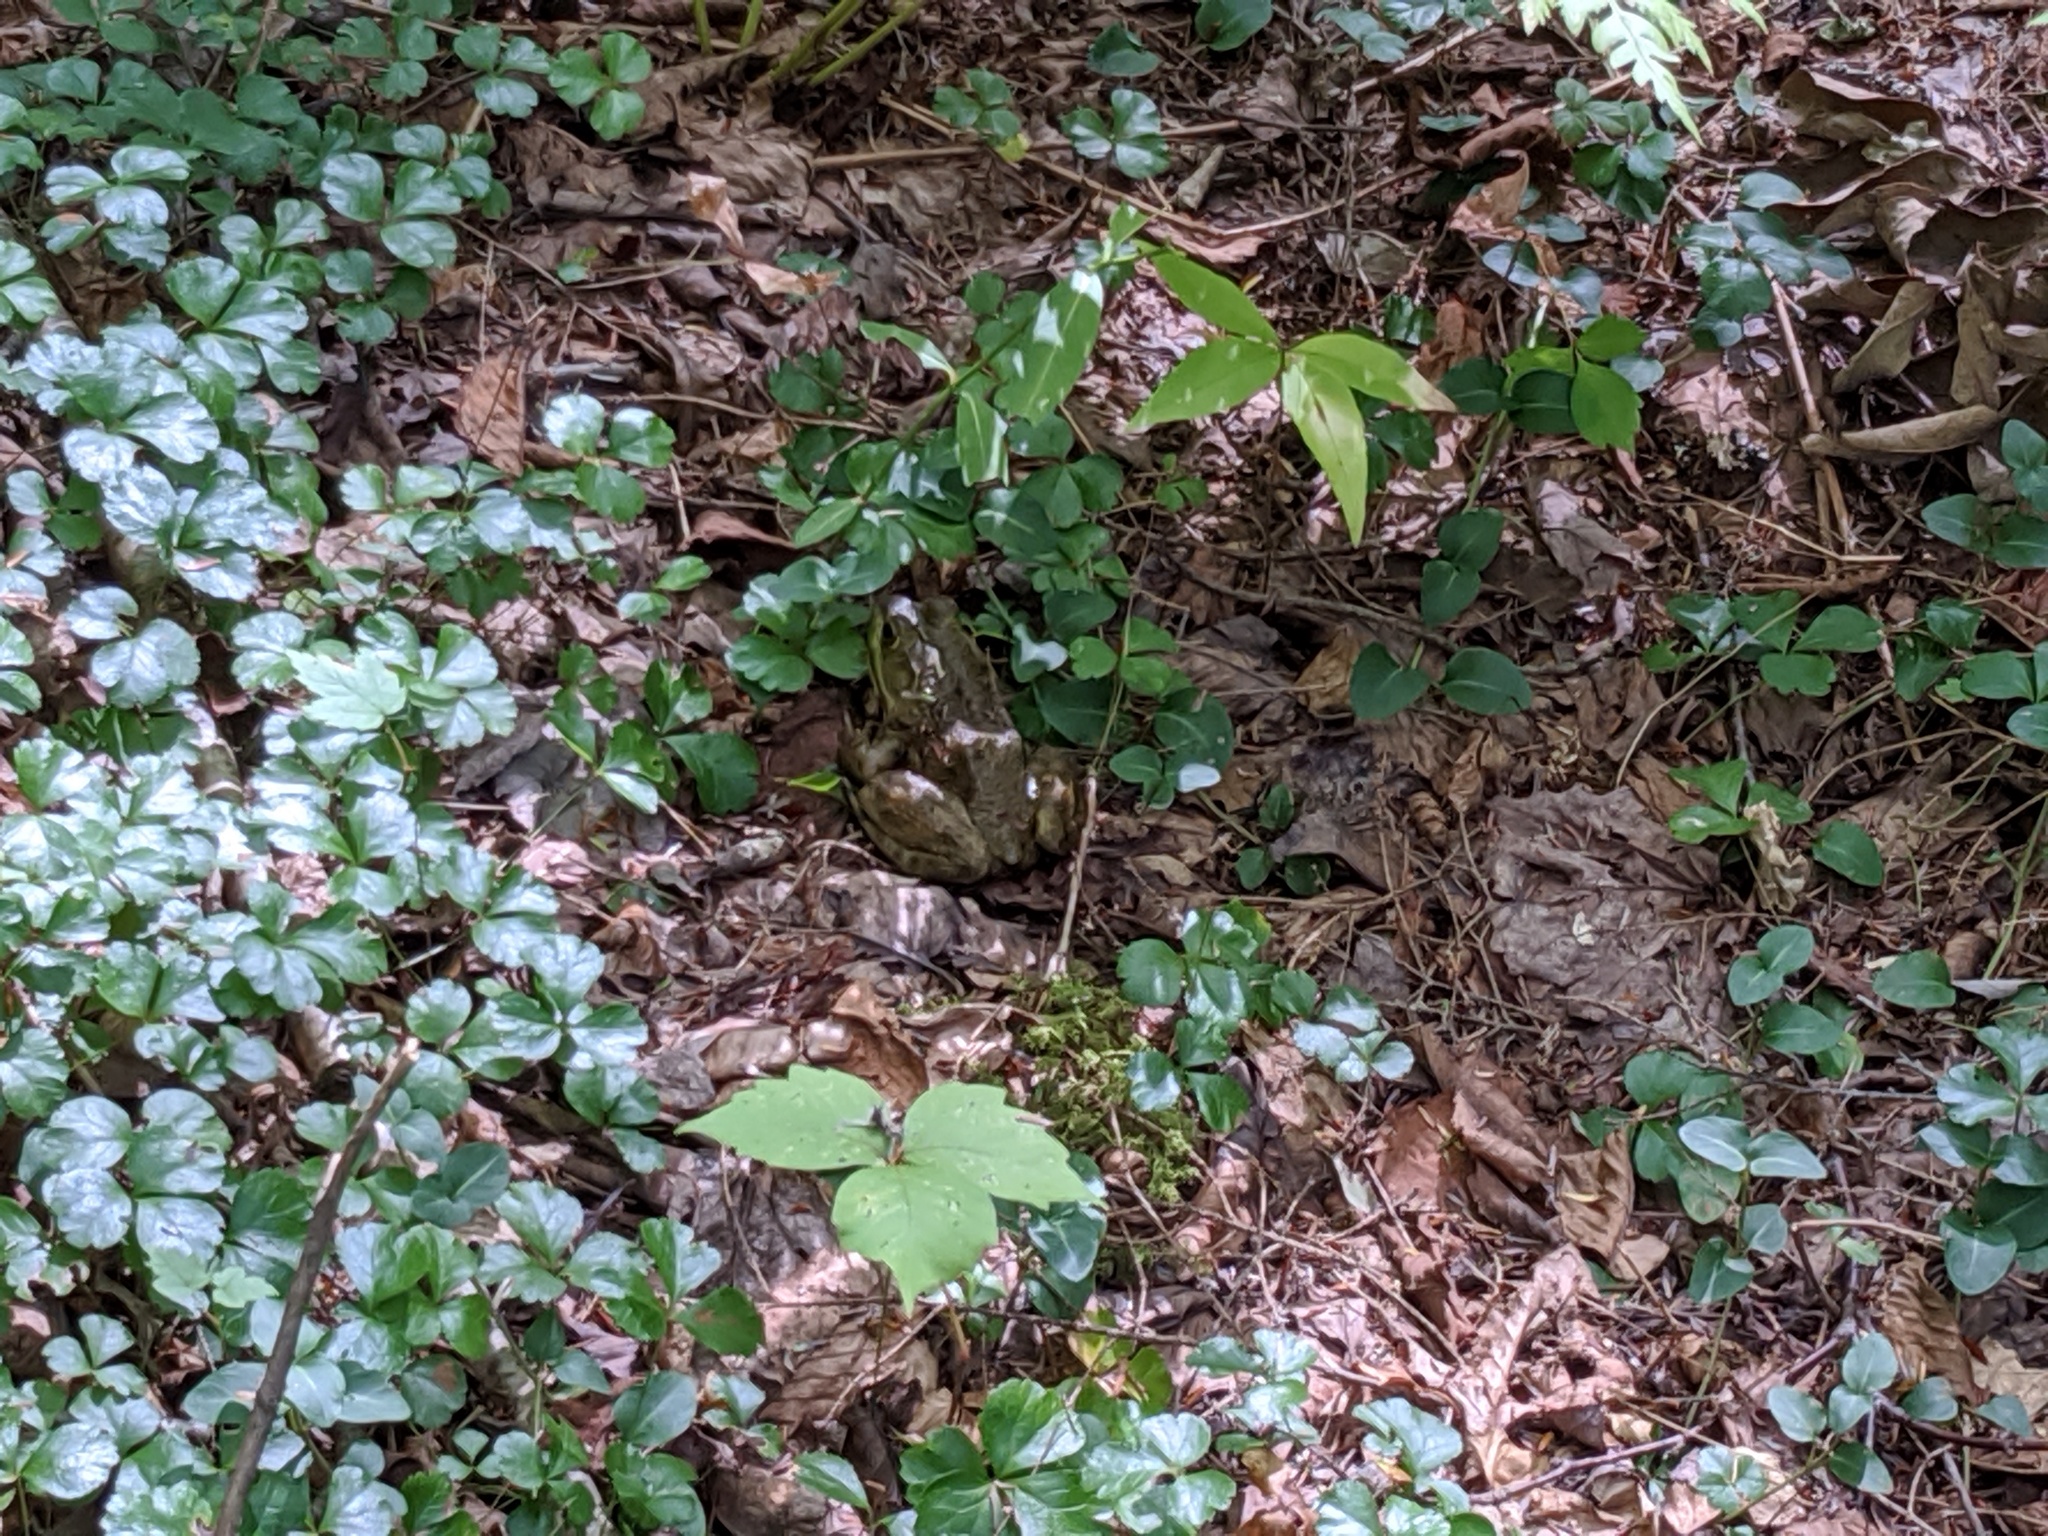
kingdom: Animalia
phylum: Chordata
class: Amphibia
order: Anura
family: Ranidae
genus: Lithobates
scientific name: Lithobates clamitans
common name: Green frog
